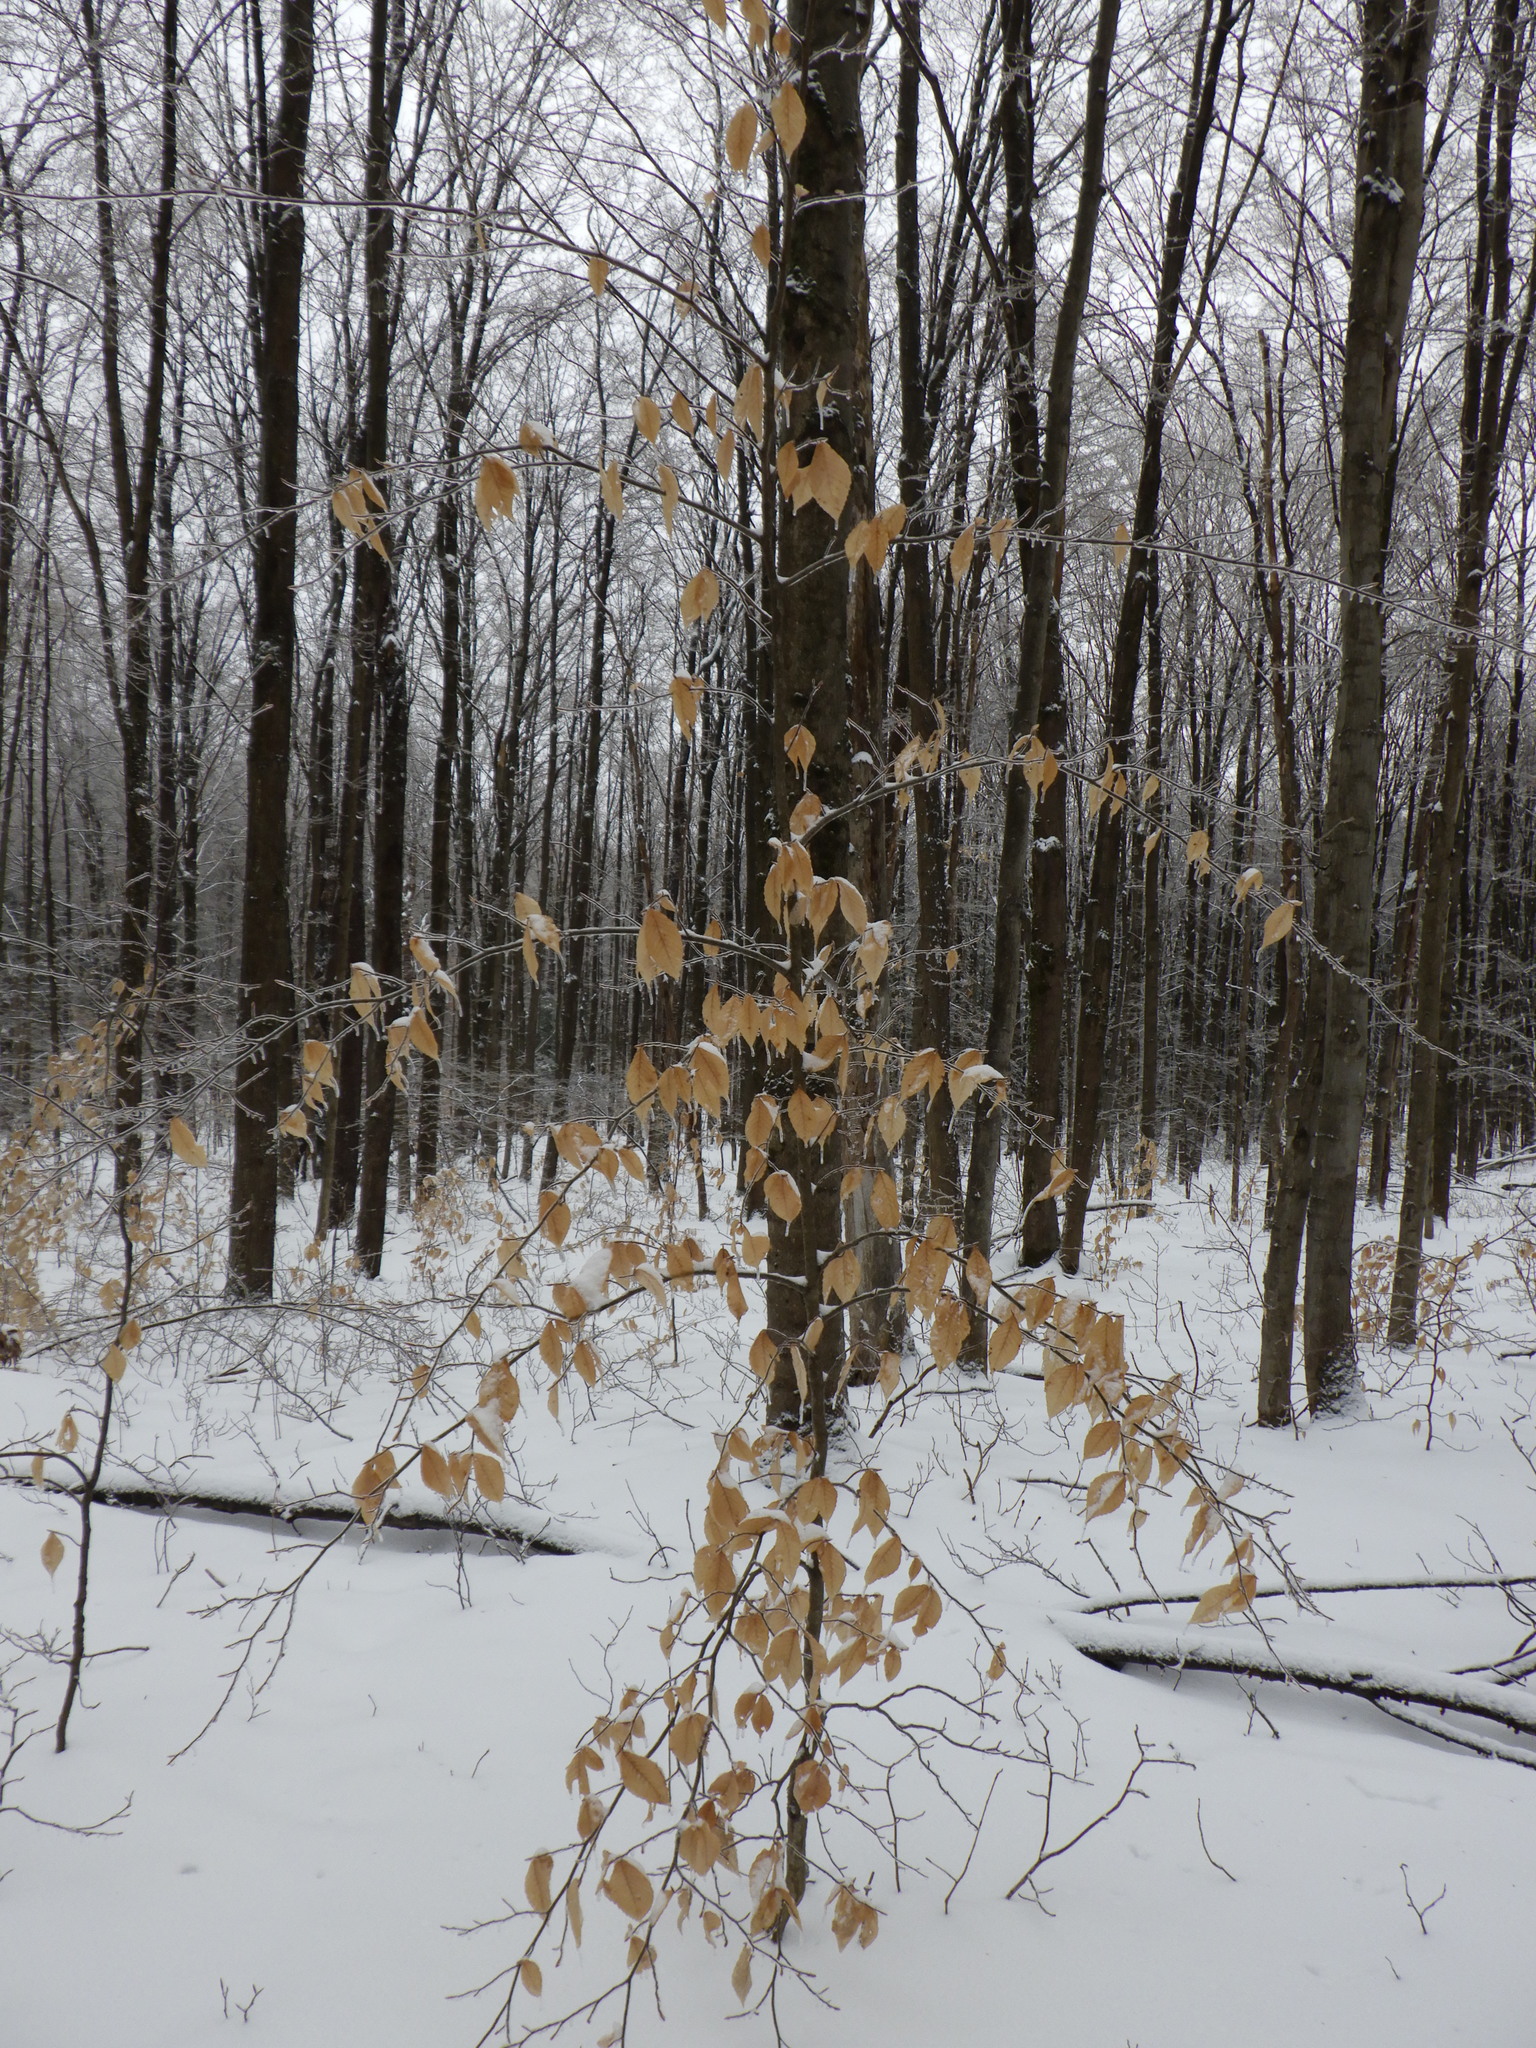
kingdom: Plantae
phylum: Tracheophyta
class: Magnoliopsida
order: Fagales
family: Fagaceae
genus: Fagus
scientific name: Fagus grandifolia
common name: American beech
